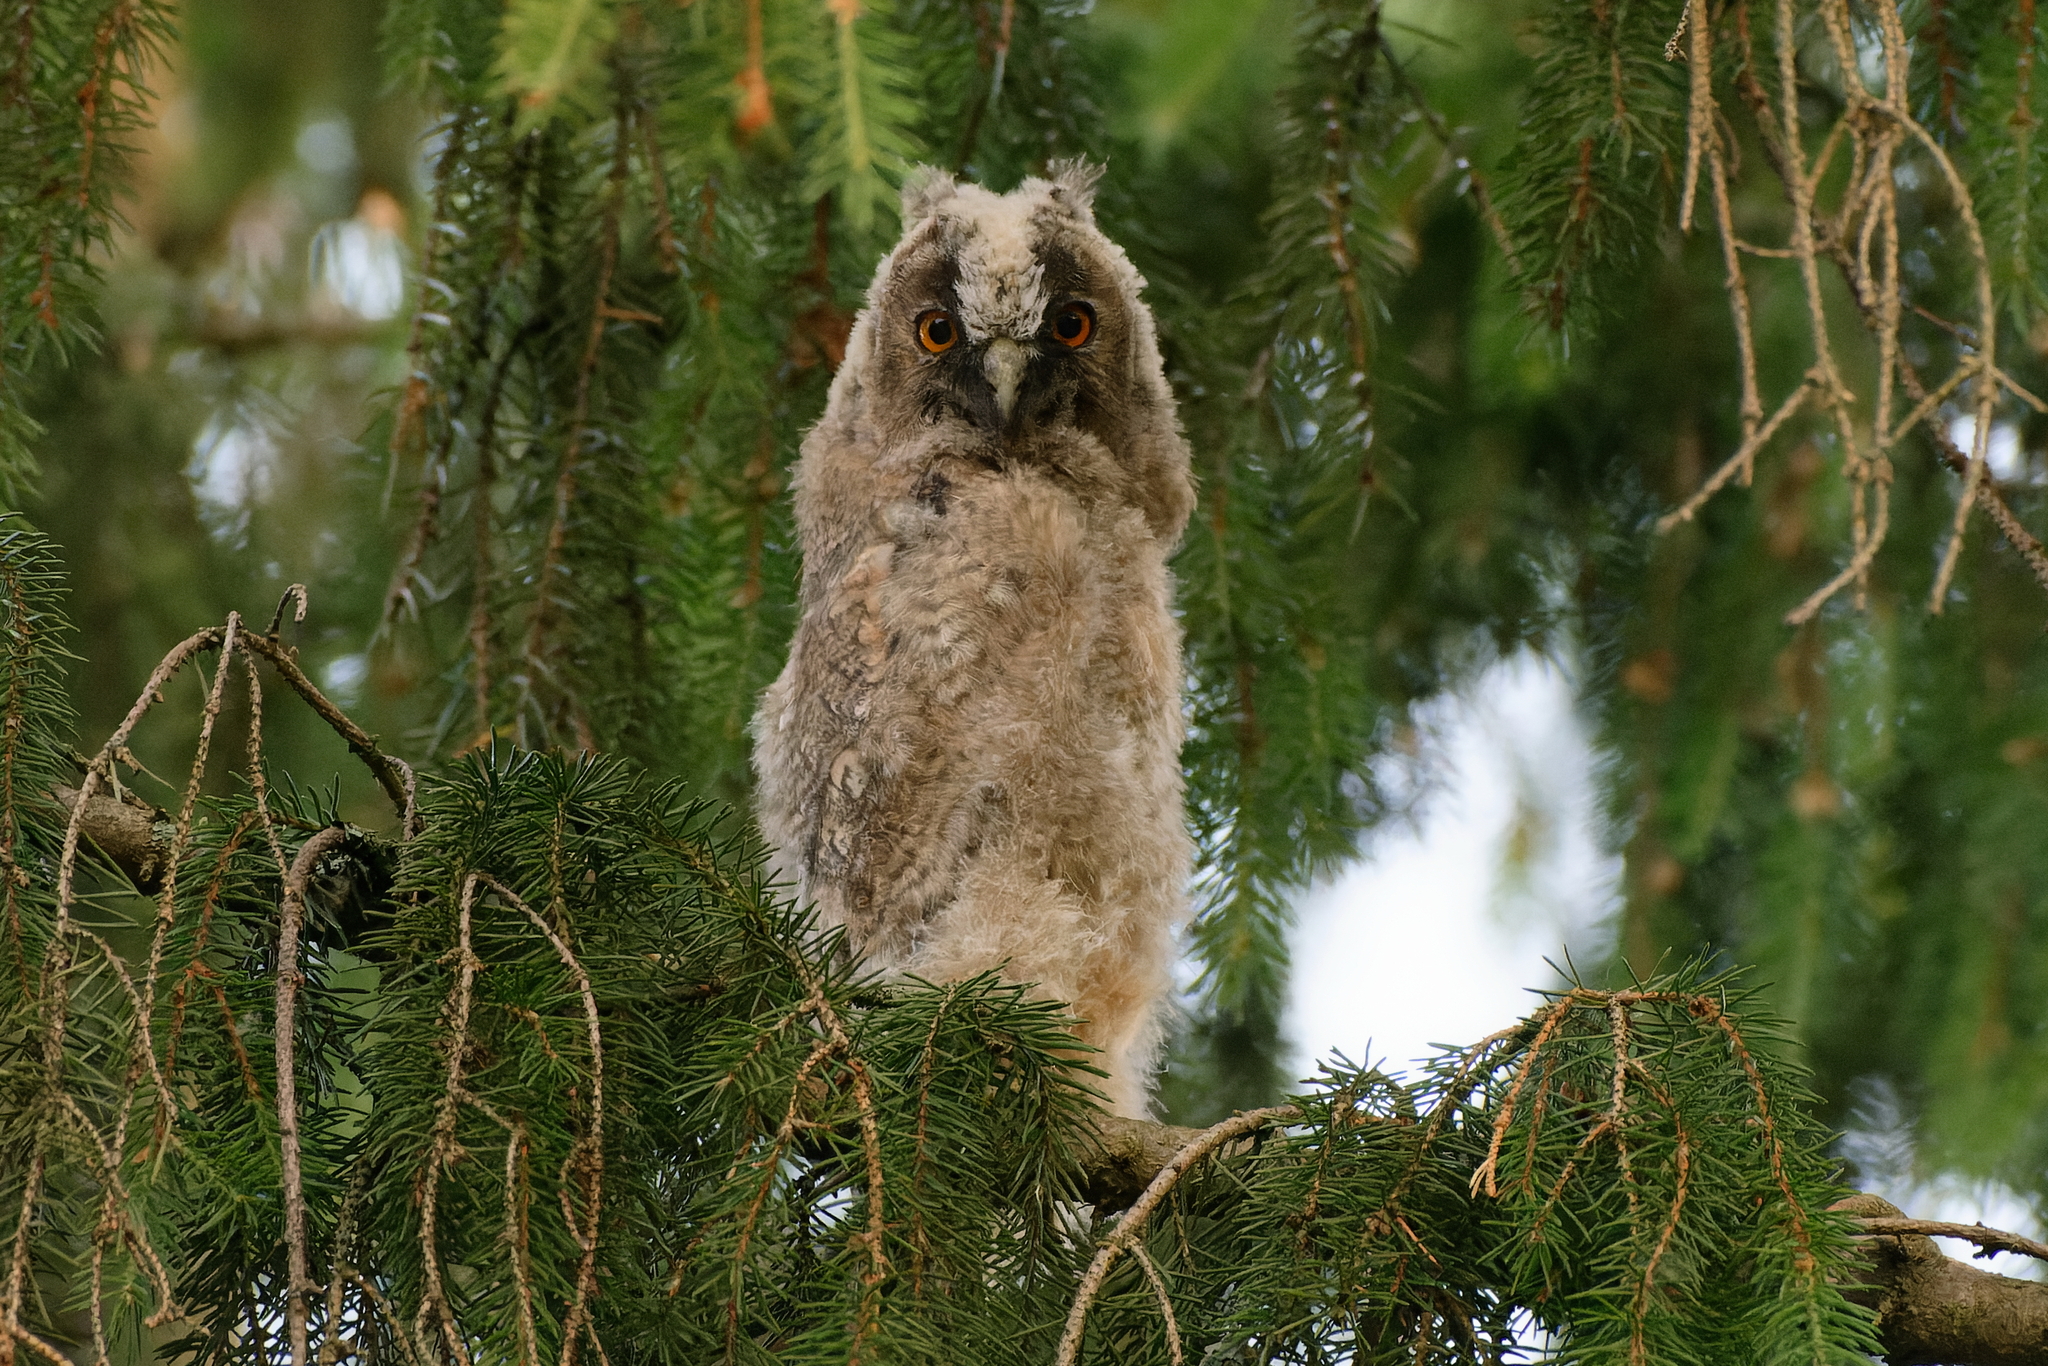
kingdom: Animalia
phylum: Chordata
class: Aves
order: Strigiformes
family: Strigidae
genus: Asio
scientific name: Asio otus
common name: Long-eared owl
